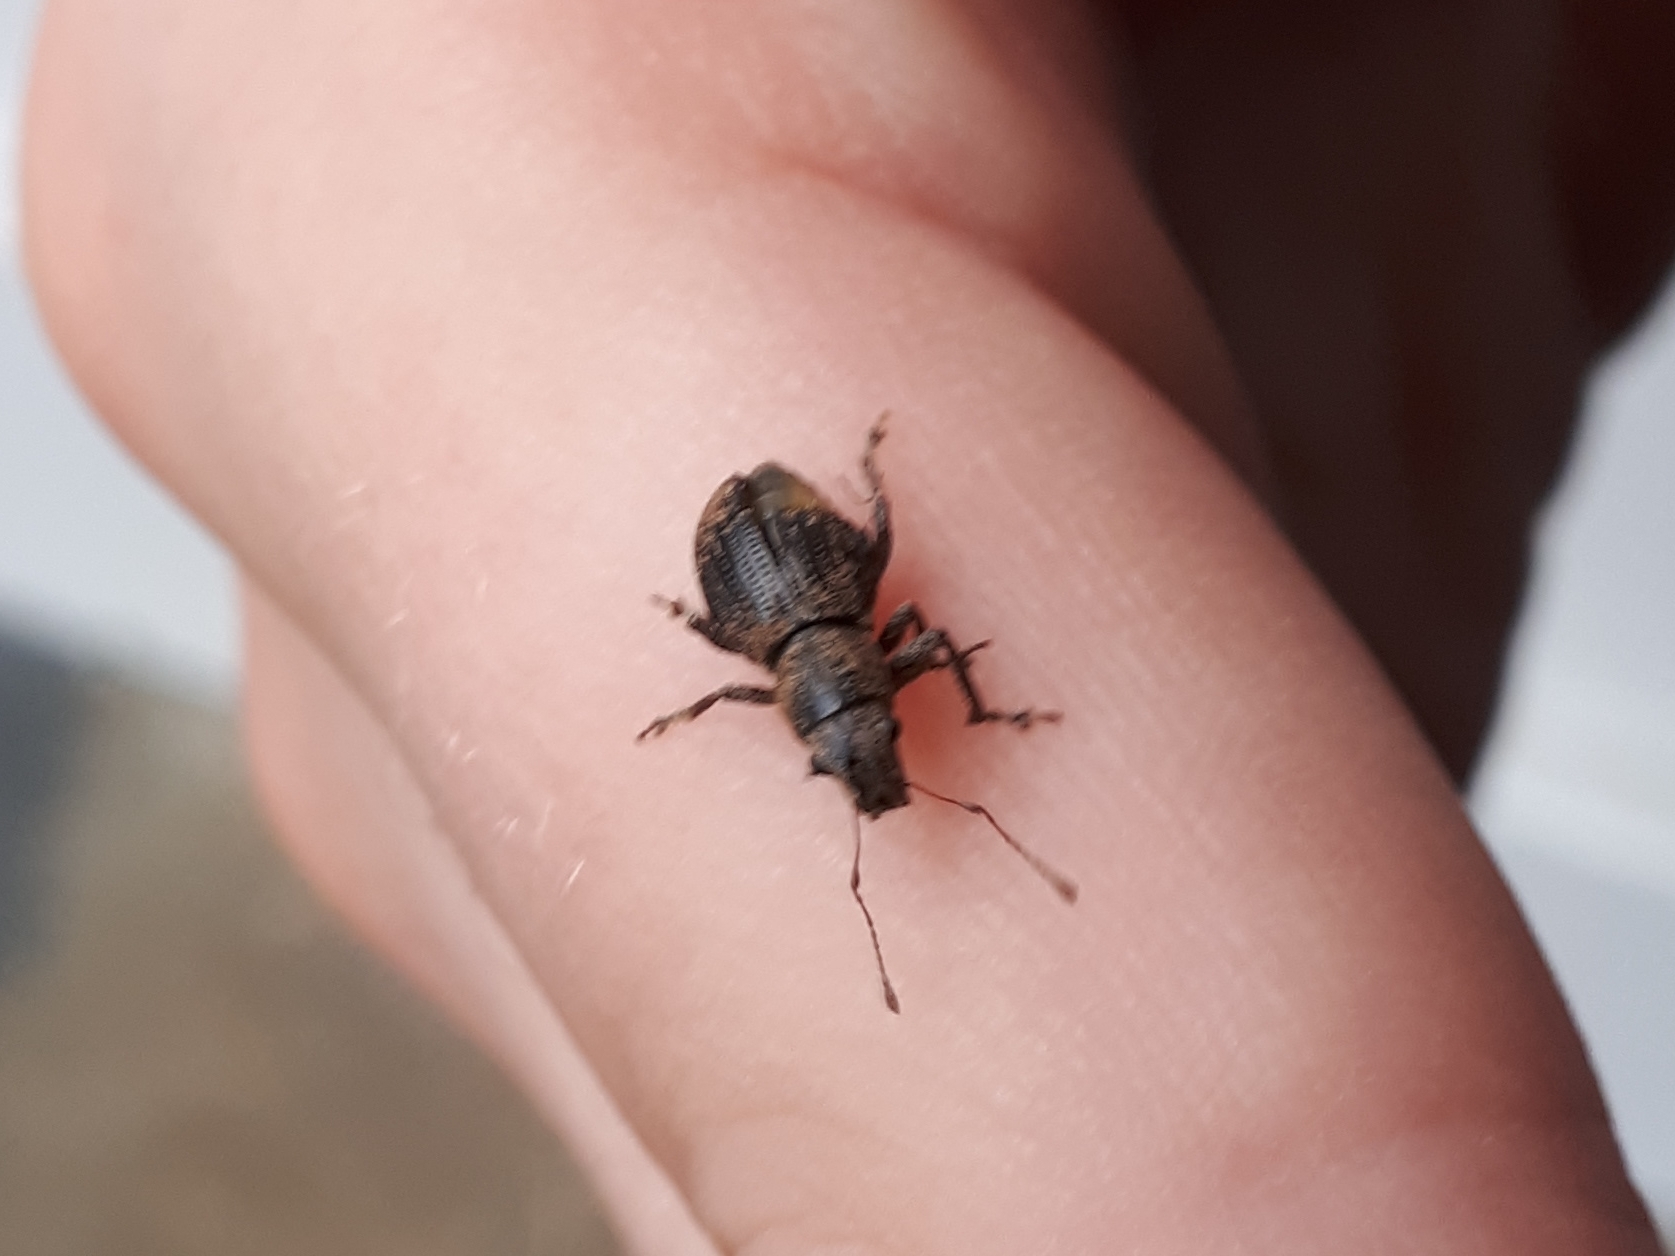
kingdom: Animalia
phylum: Arthropoda
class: Insecta
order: Coleoptera
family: Curculionidae
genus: Naupactus
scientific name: Naupactus cervinus
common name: Fuller rose beetle
